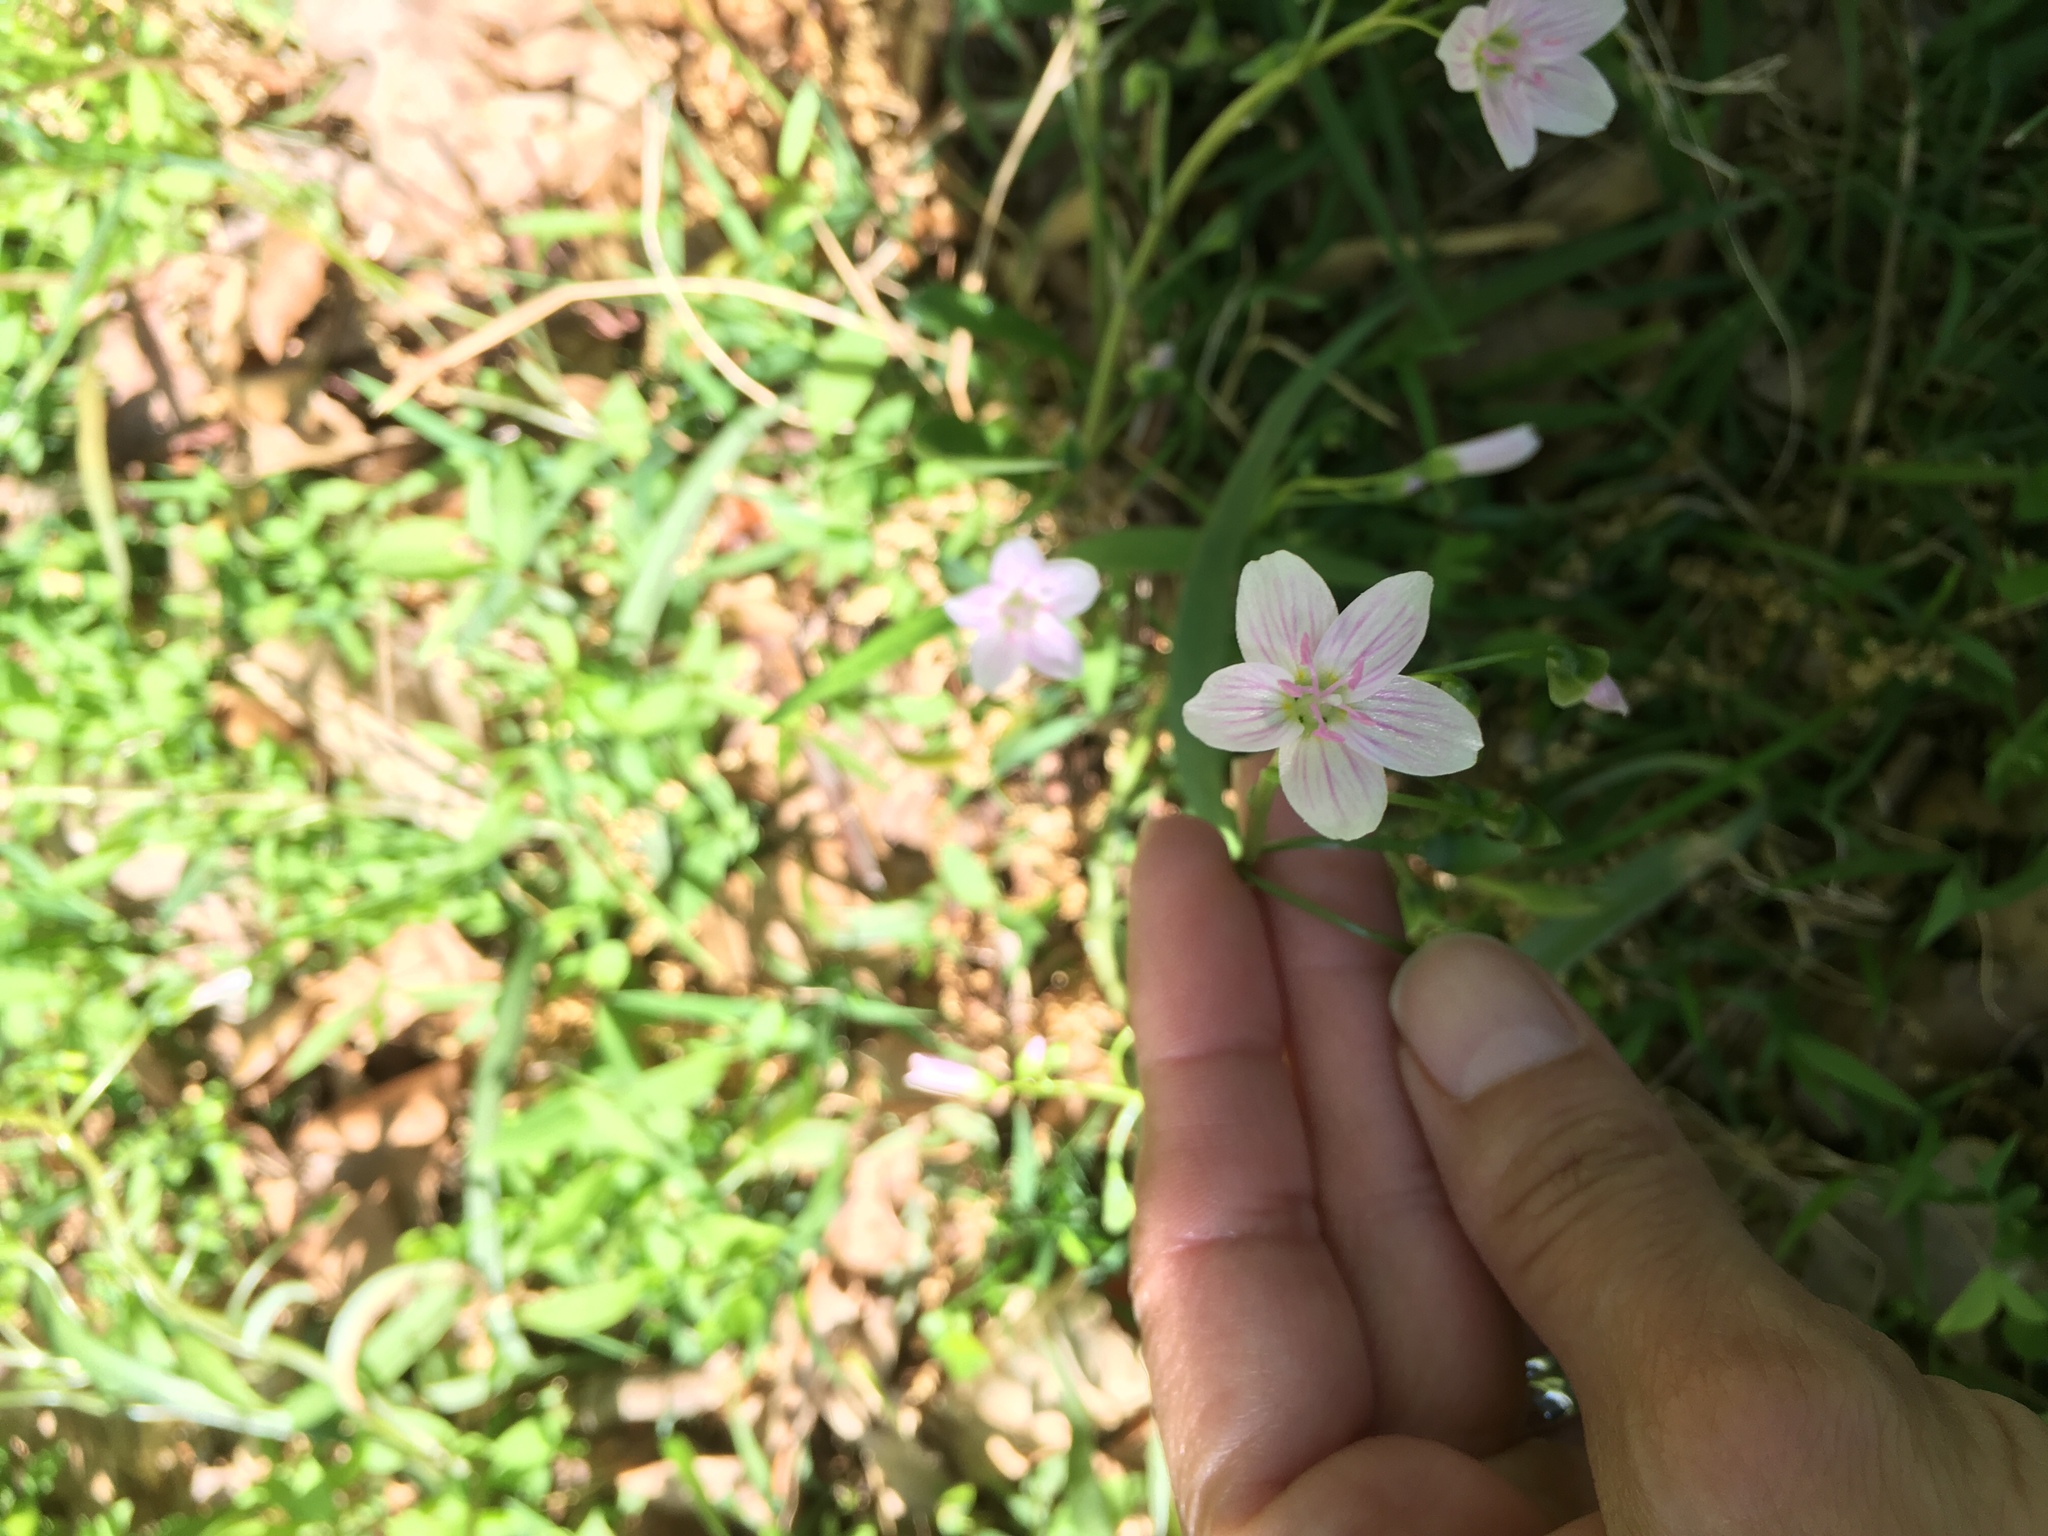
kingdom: Plantae
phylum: Tracheophyta
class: Magnoliopsida
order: Caryophyllales
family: Montiaceae
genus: Claytonia
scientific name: Claytonia virginica
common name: Virginia springbeauty
